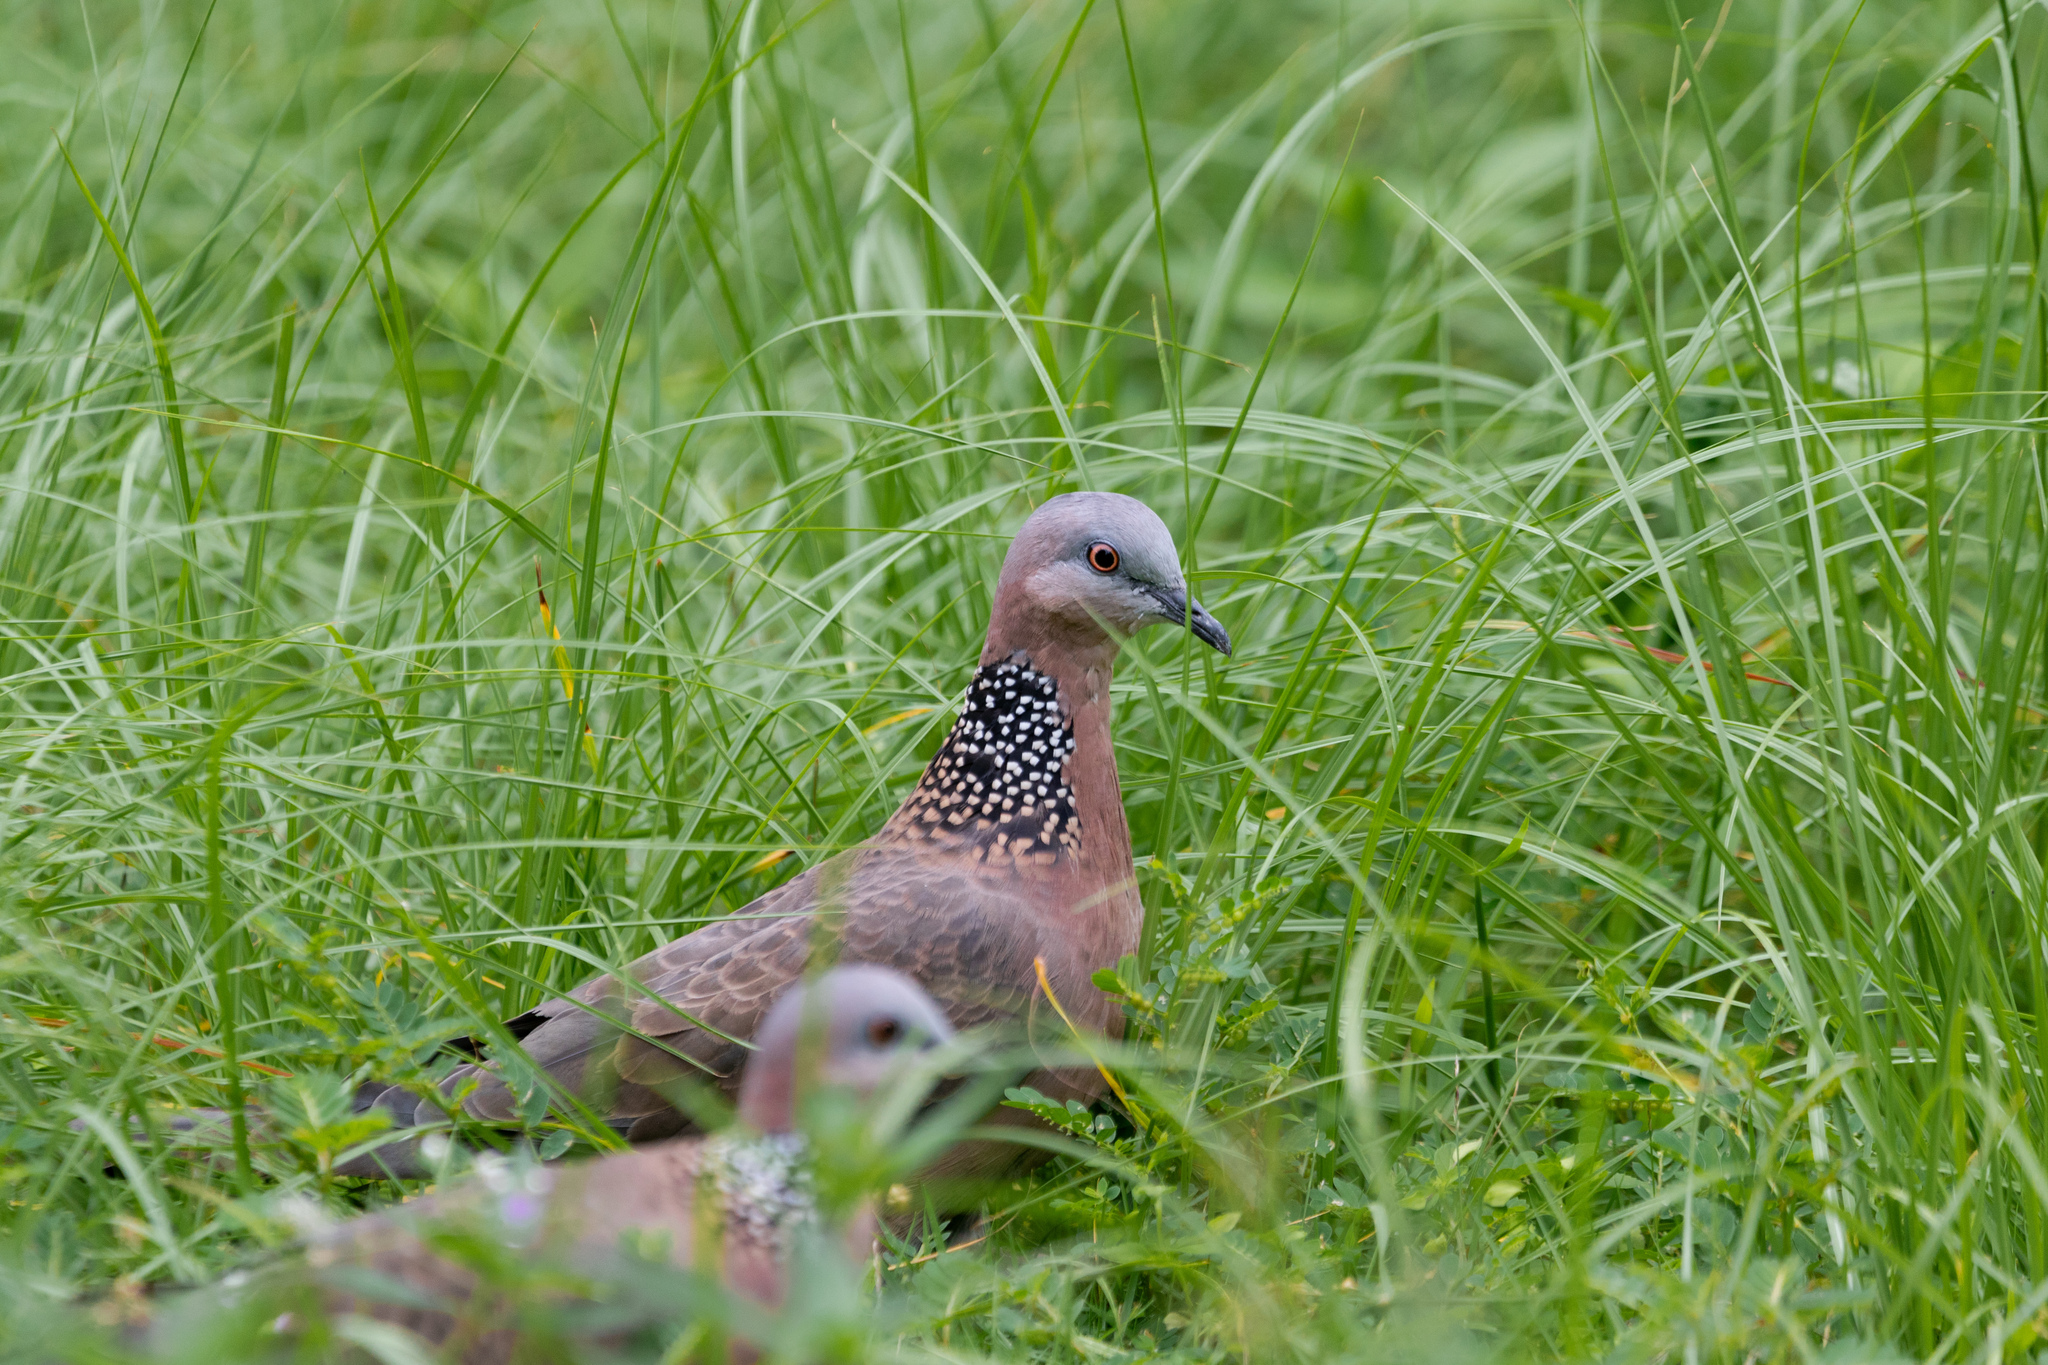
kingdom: Animalia
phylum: Chordata
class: Aves
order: Columbiformes
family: Columbidae
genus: Spilopelia
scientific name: Spilopelia chinensis
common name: Spotted dove
